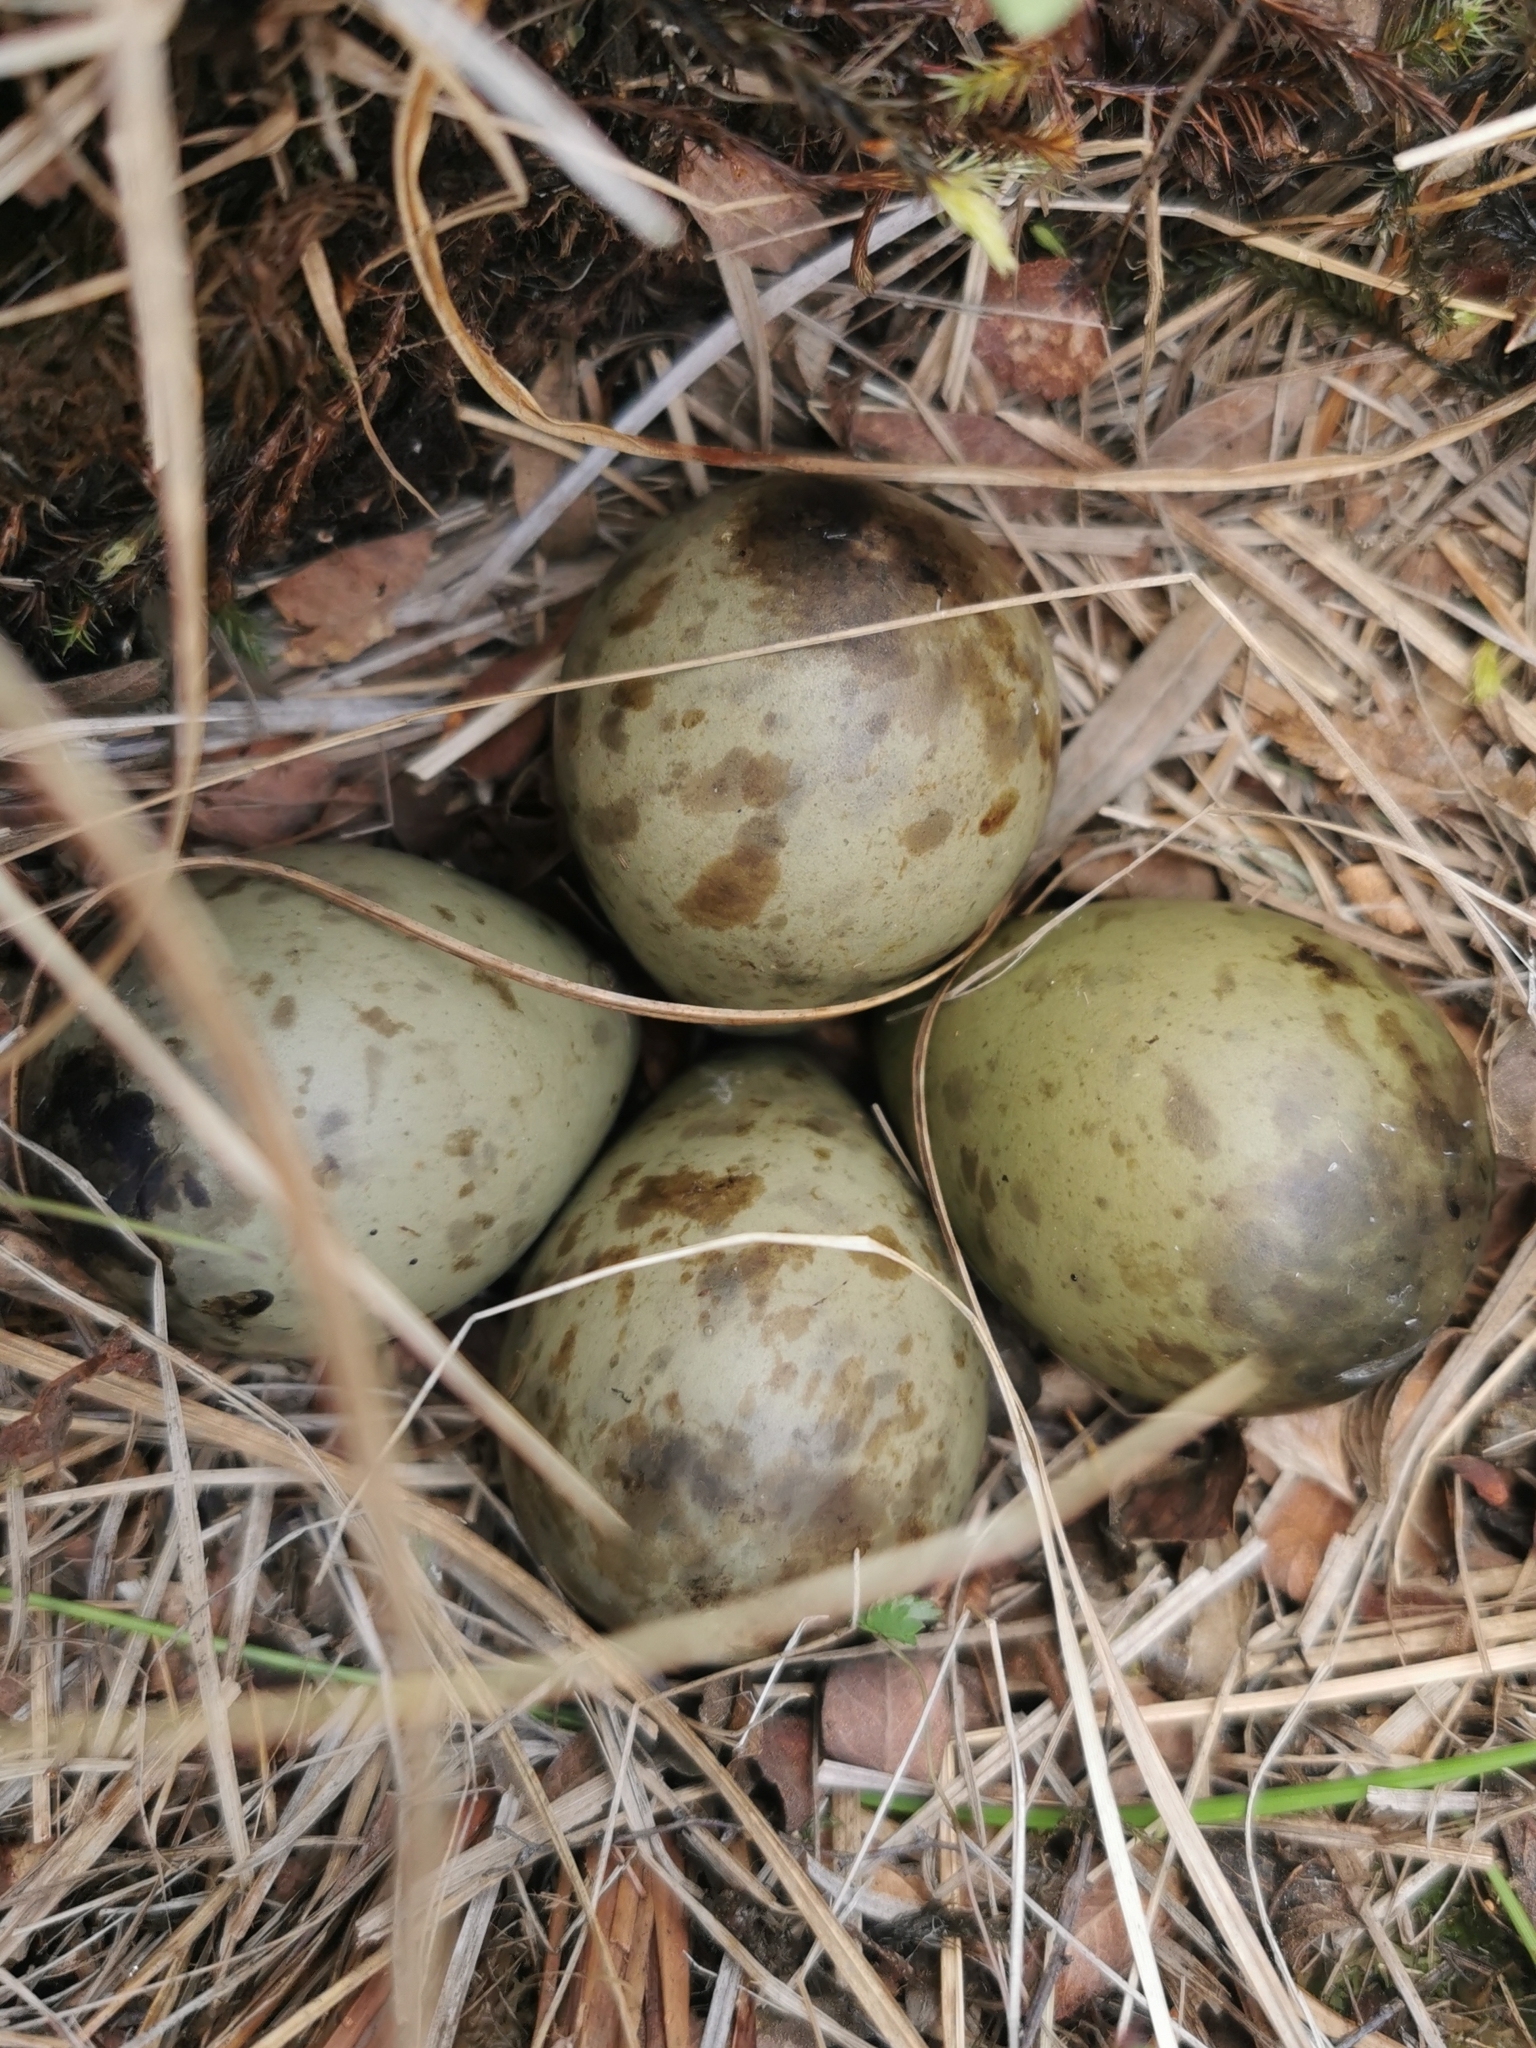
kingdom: Animalia
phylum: Chordata
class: Aves
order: Charadriiformes
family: Scolopacidae
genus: Limosa
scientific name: Limosa limosa
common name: Black-tailed godwit
